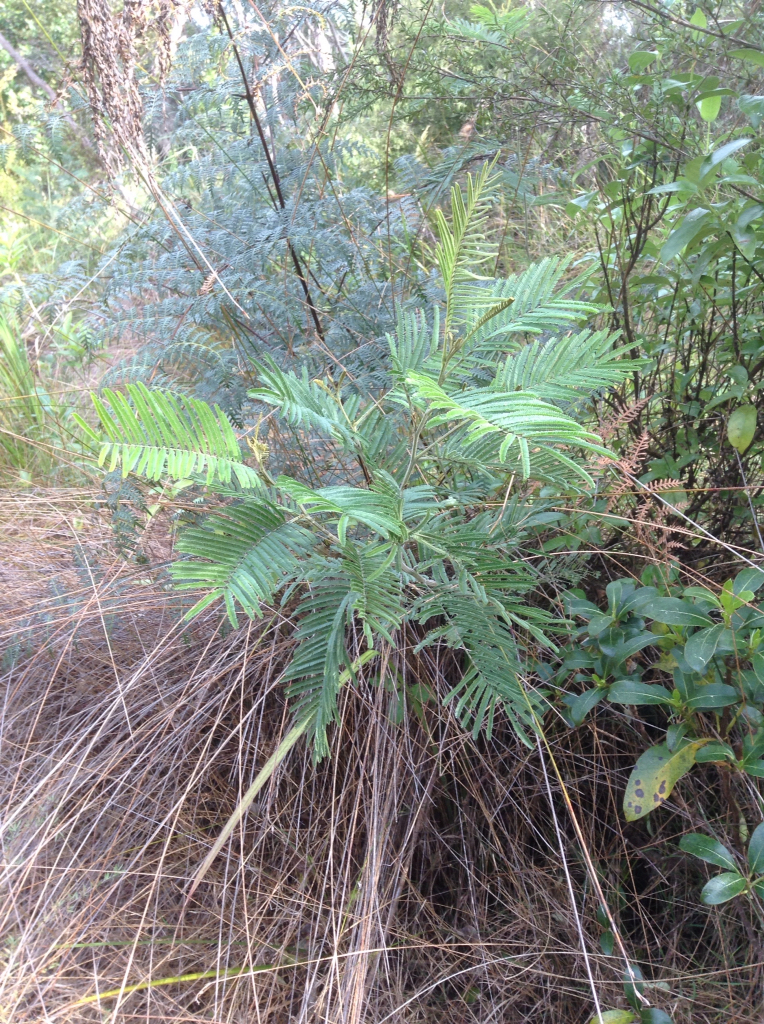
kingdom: Plantae
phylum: Tracheophyta
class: Magnoliopsida
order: Fabales
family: Fabaceae
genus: Acacia
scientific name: Acacia mearnsii
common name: Black wattle
